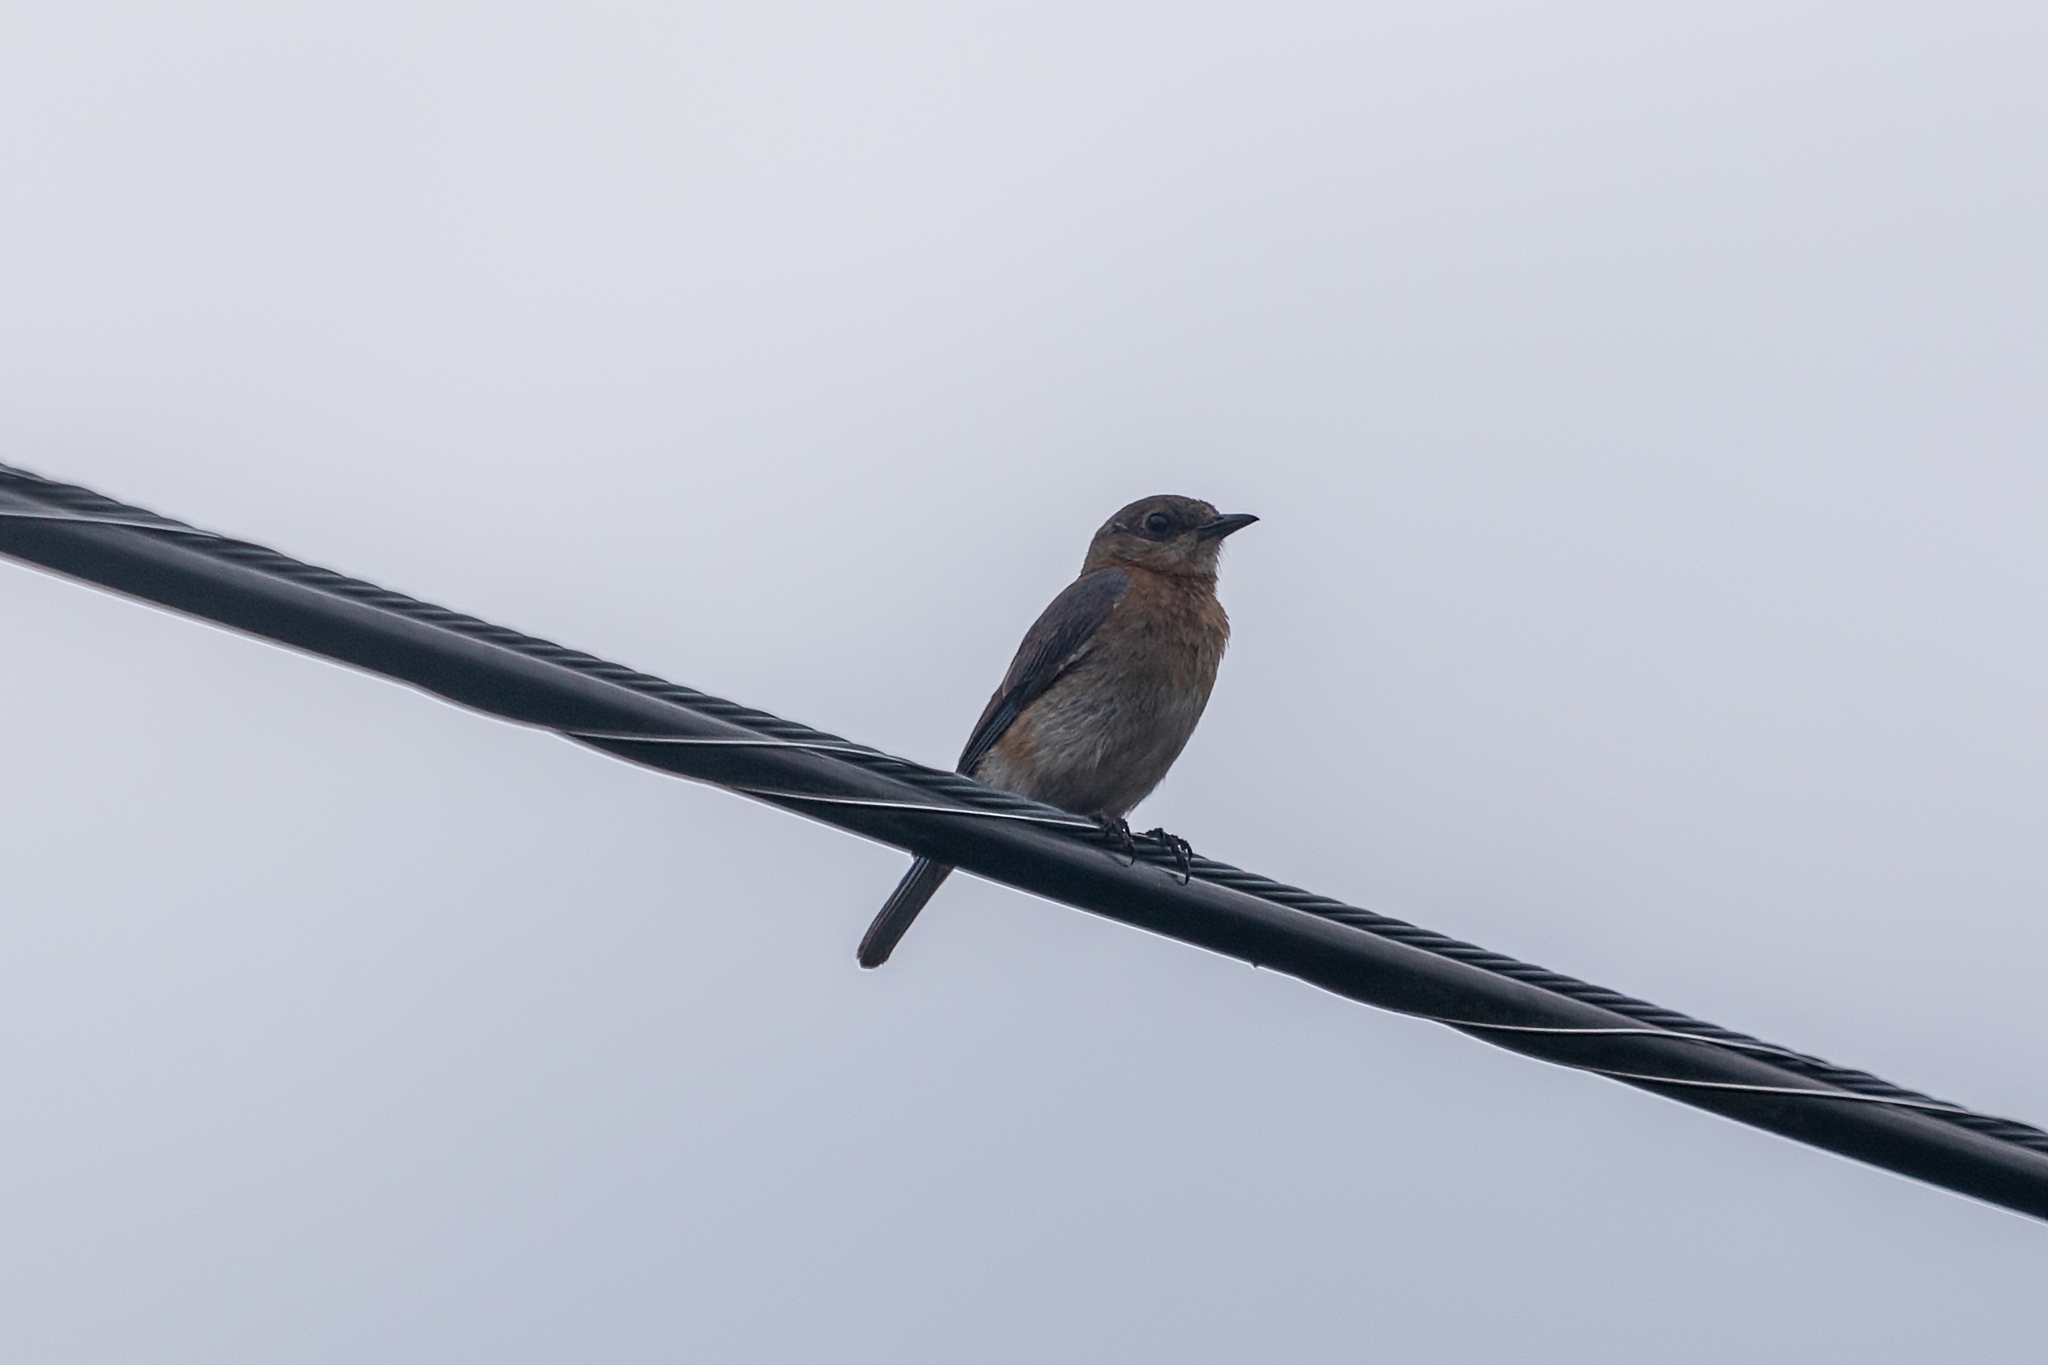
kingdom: Animalia
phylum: Chordata
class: Aves
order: Passeriformes
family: Turdidae
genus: Sialia
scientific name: Sialia sialis
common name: Eastern bluebird
